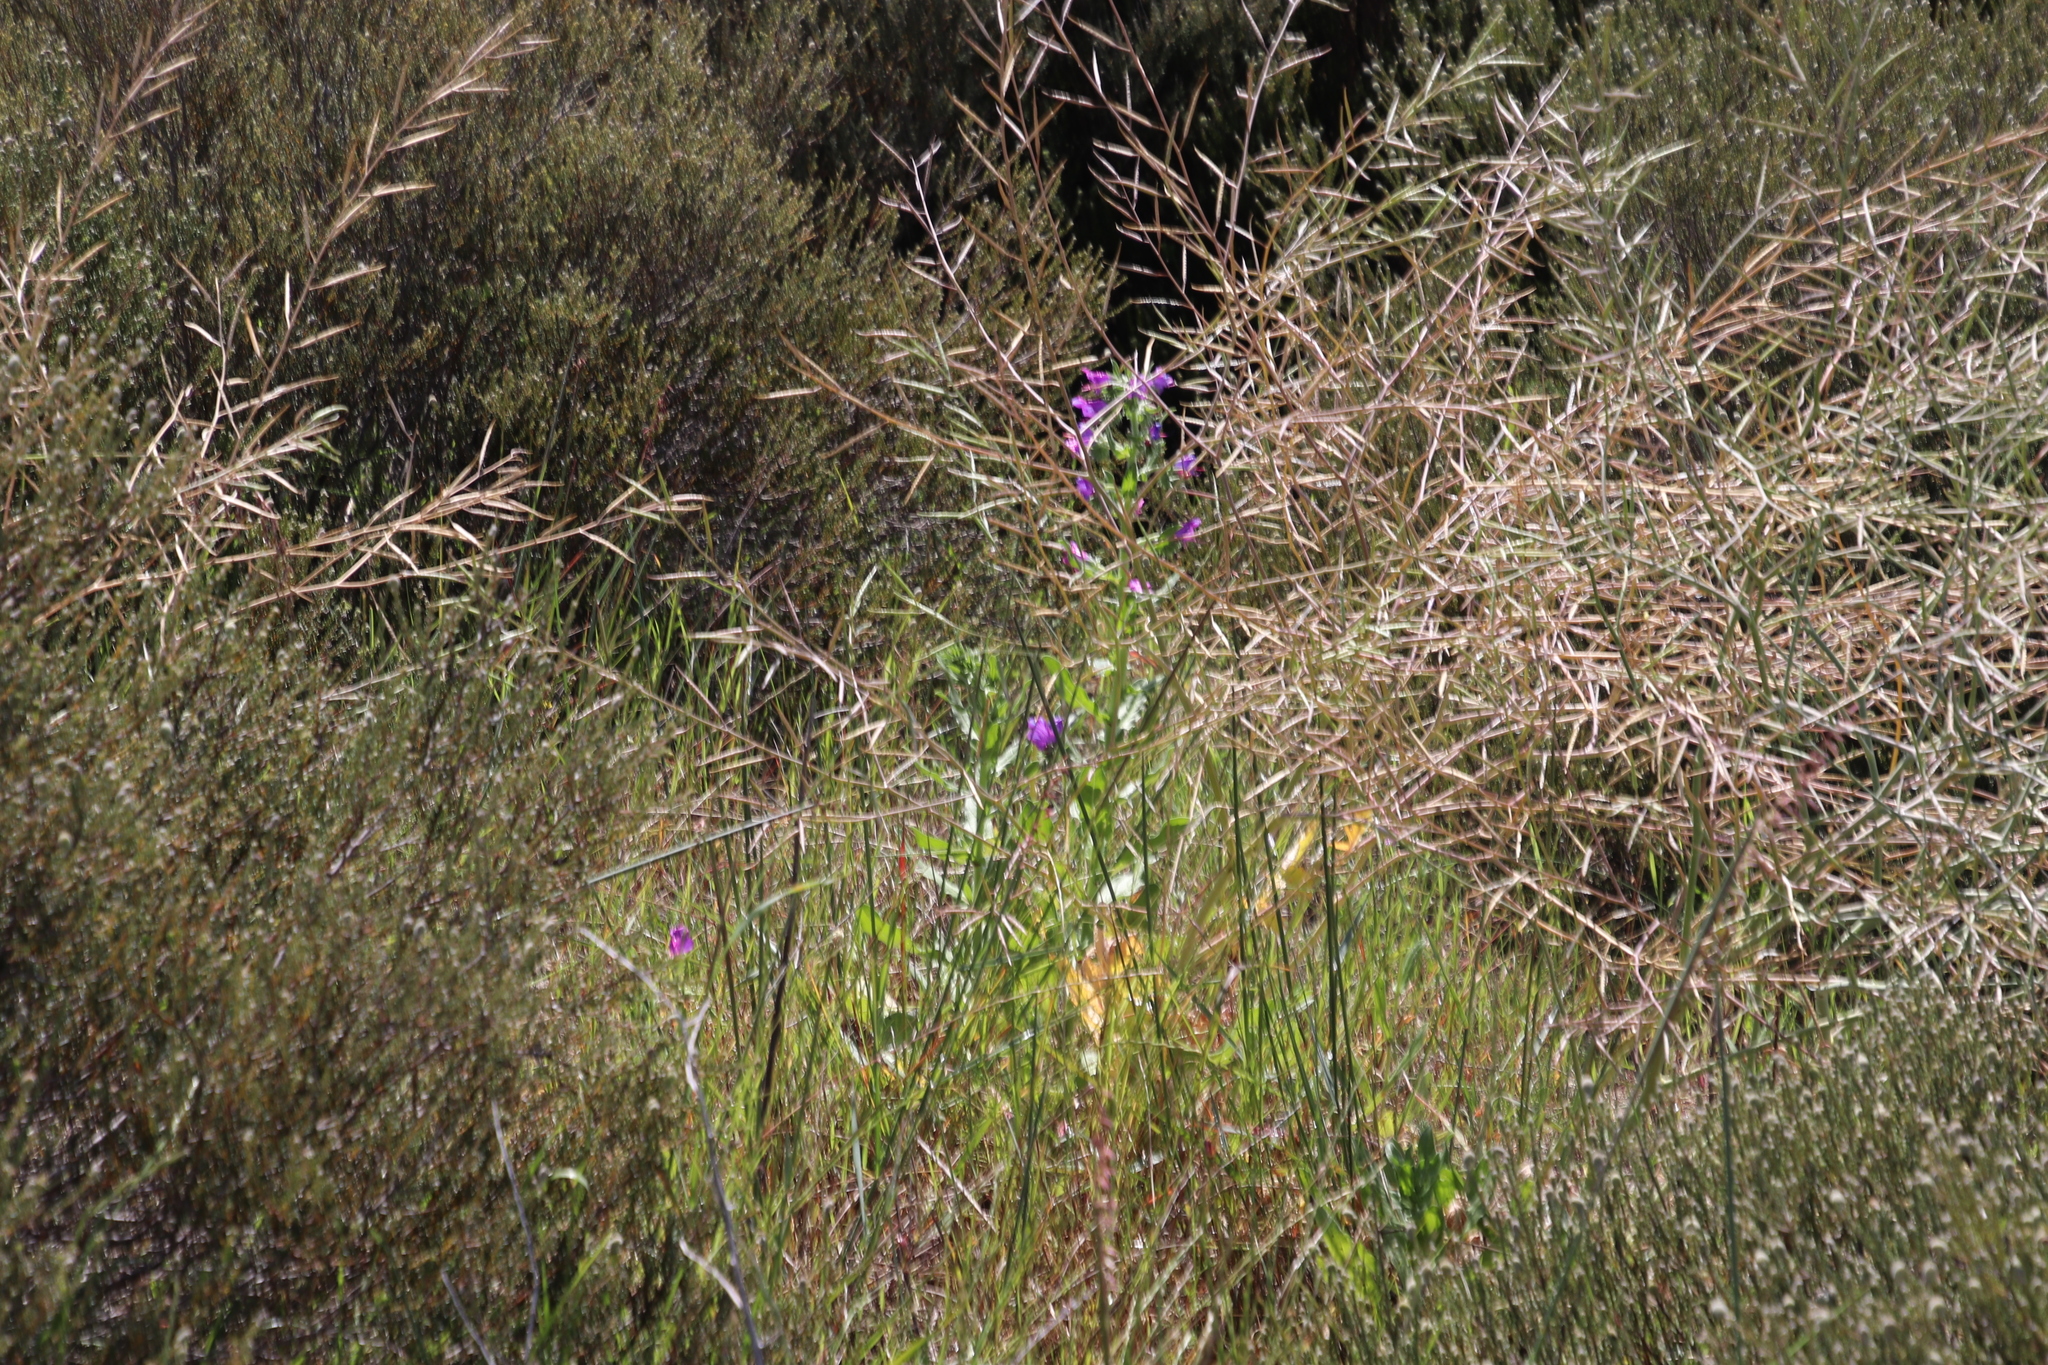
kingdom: Plantae
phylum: Tracheophyta
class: Magnoliopsida
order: Boraginales
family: Boraginaceae
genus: Echium
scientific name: Echium plantagineum
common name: Purple viper's-bugloss
